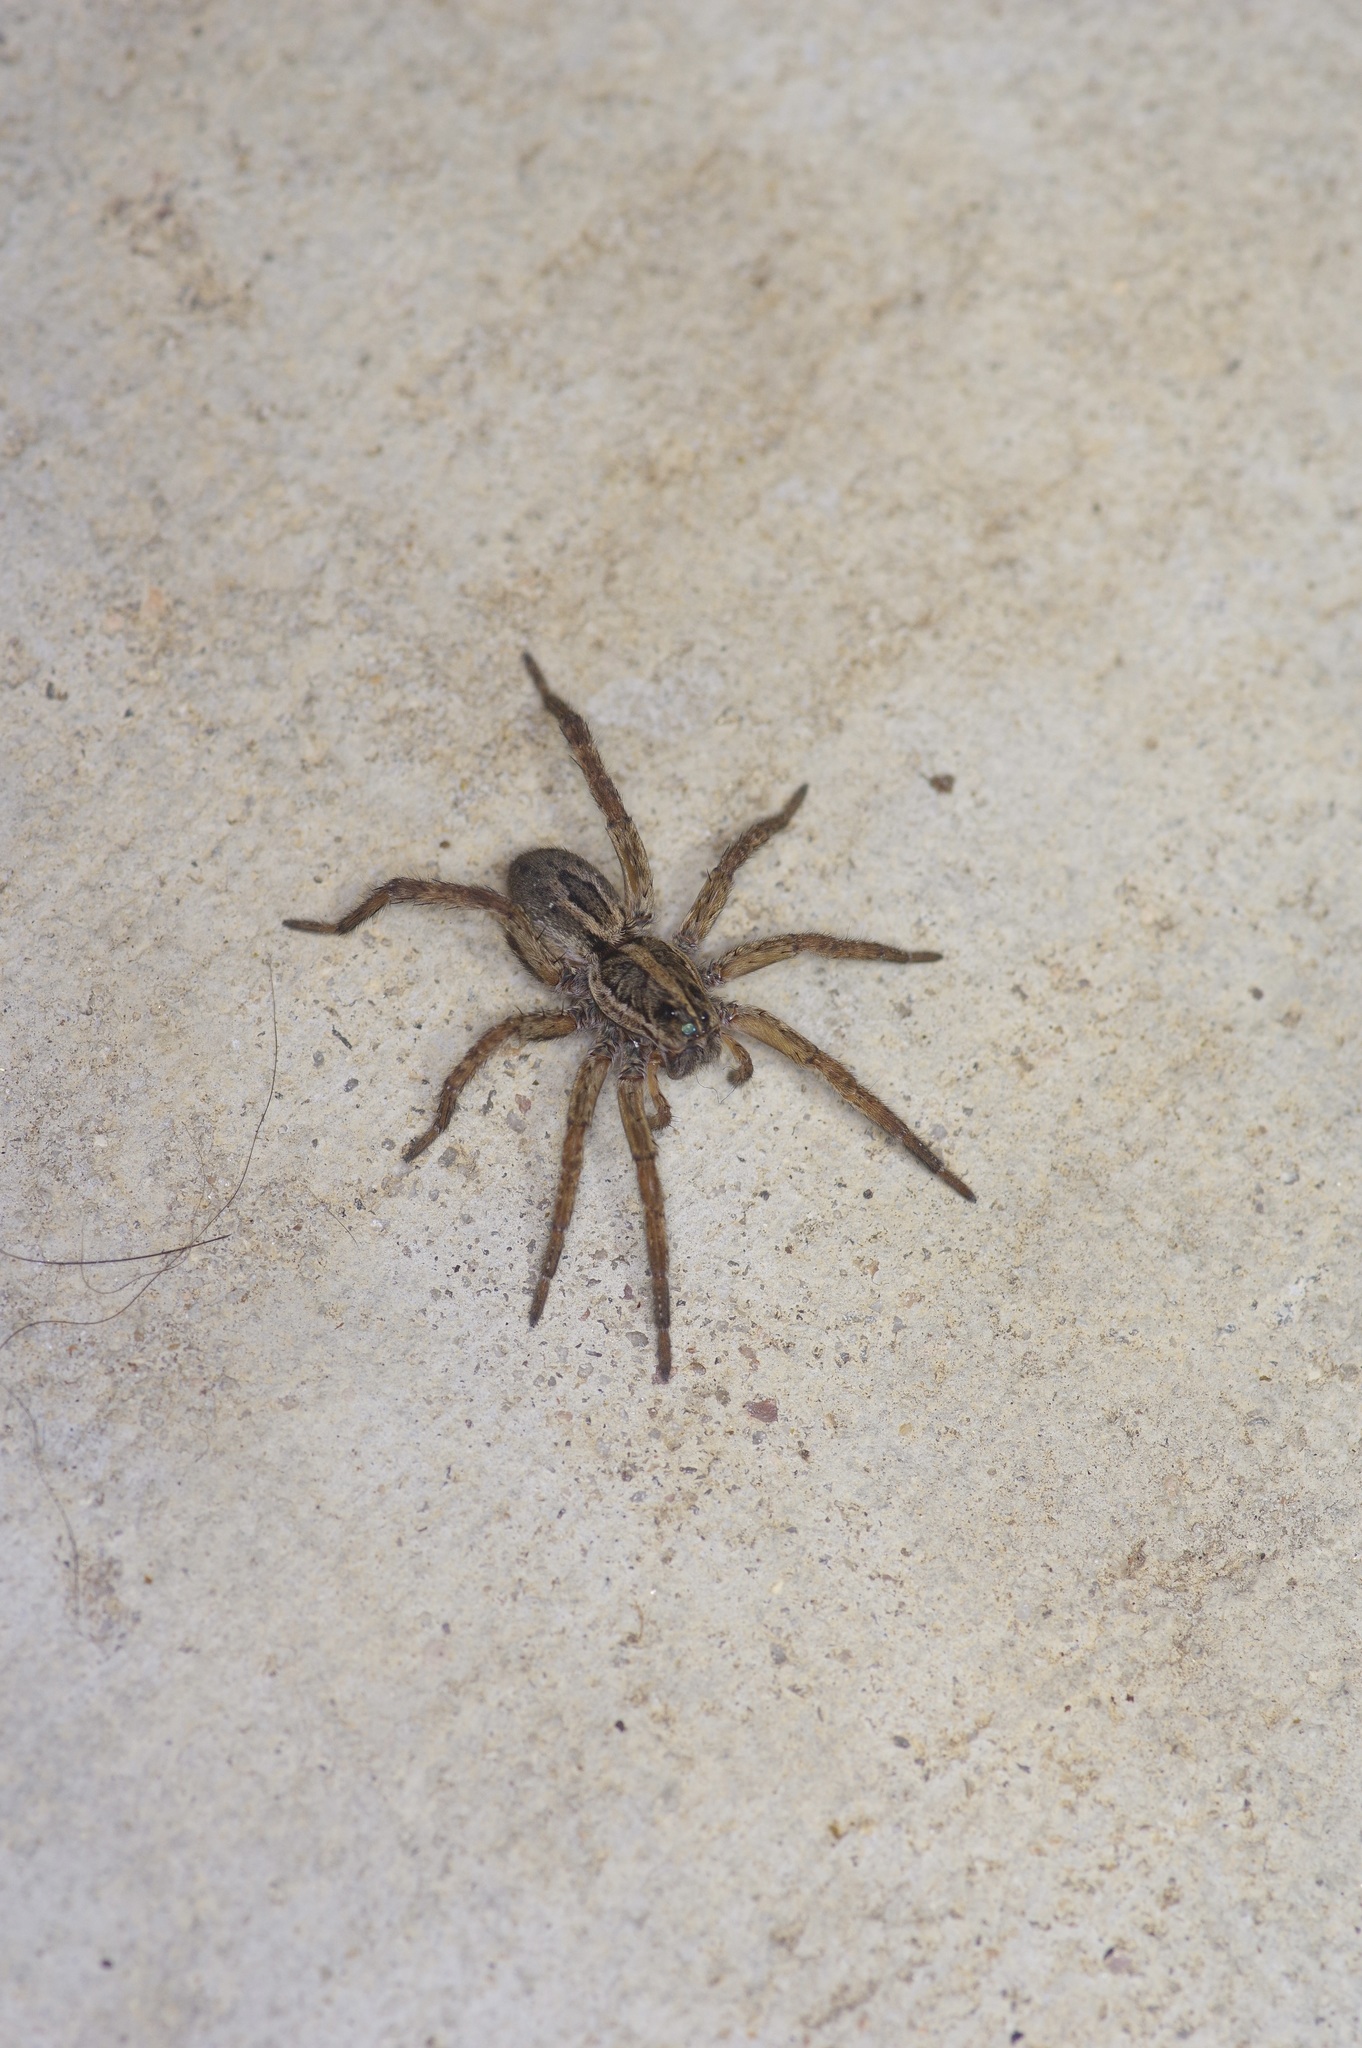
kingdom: Animalia
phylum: Arthropoda
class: Arachnida
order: Araneae
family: Lycosidae
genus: Tigrosa
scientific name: Tigrosa annexa
